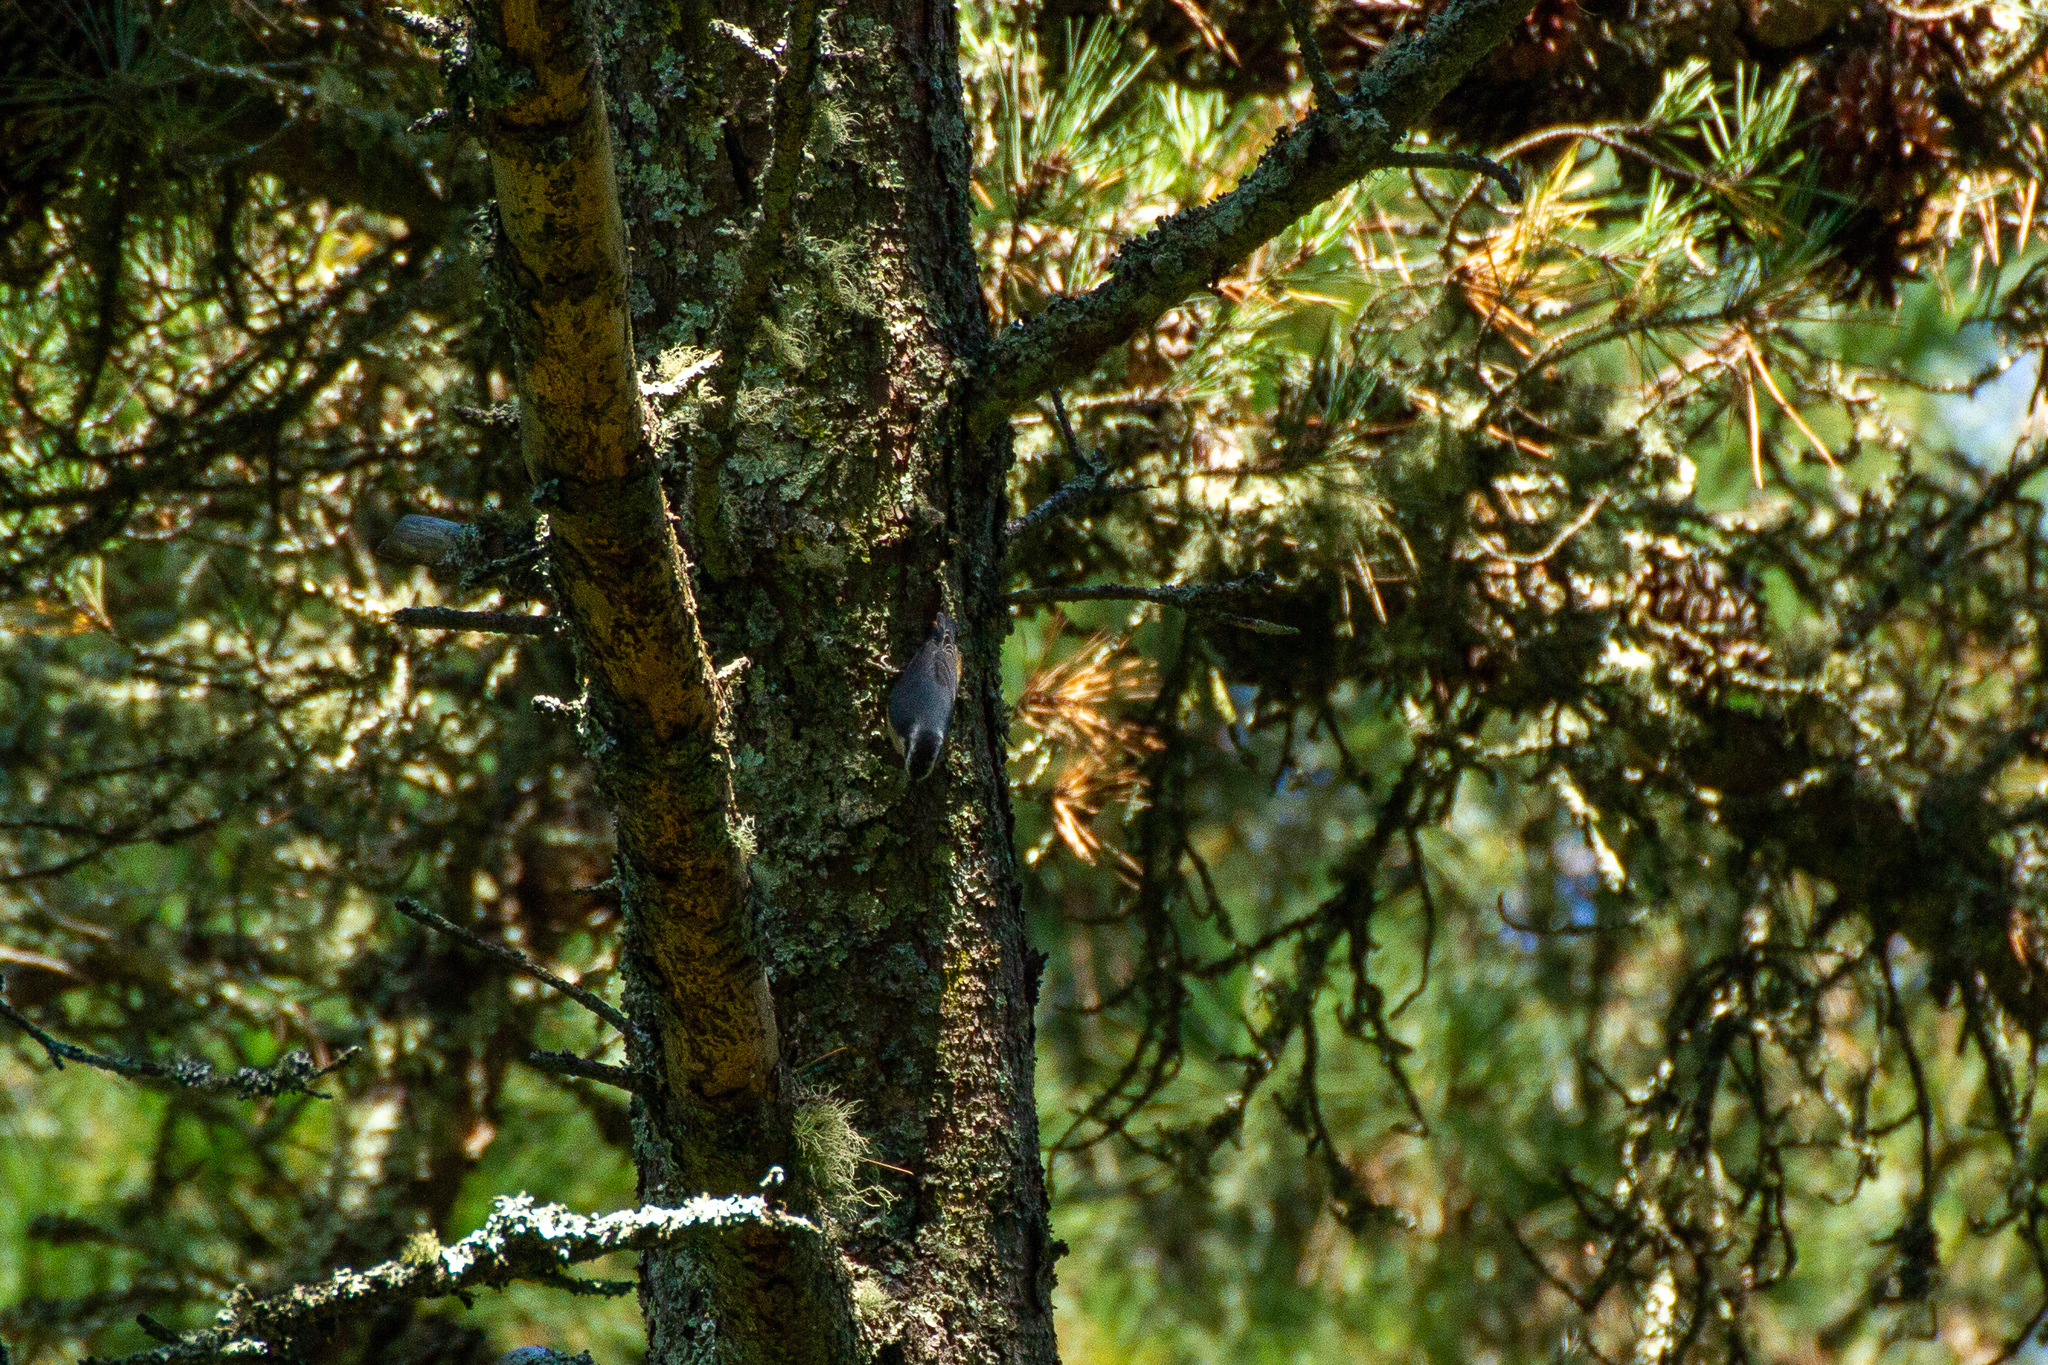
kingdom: Animalia
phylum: Chordata
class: Aves
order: Passeriformes
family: Sittidae
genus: Sitta
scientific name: Sitta canadensis
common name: Red-breasted nuthatch
